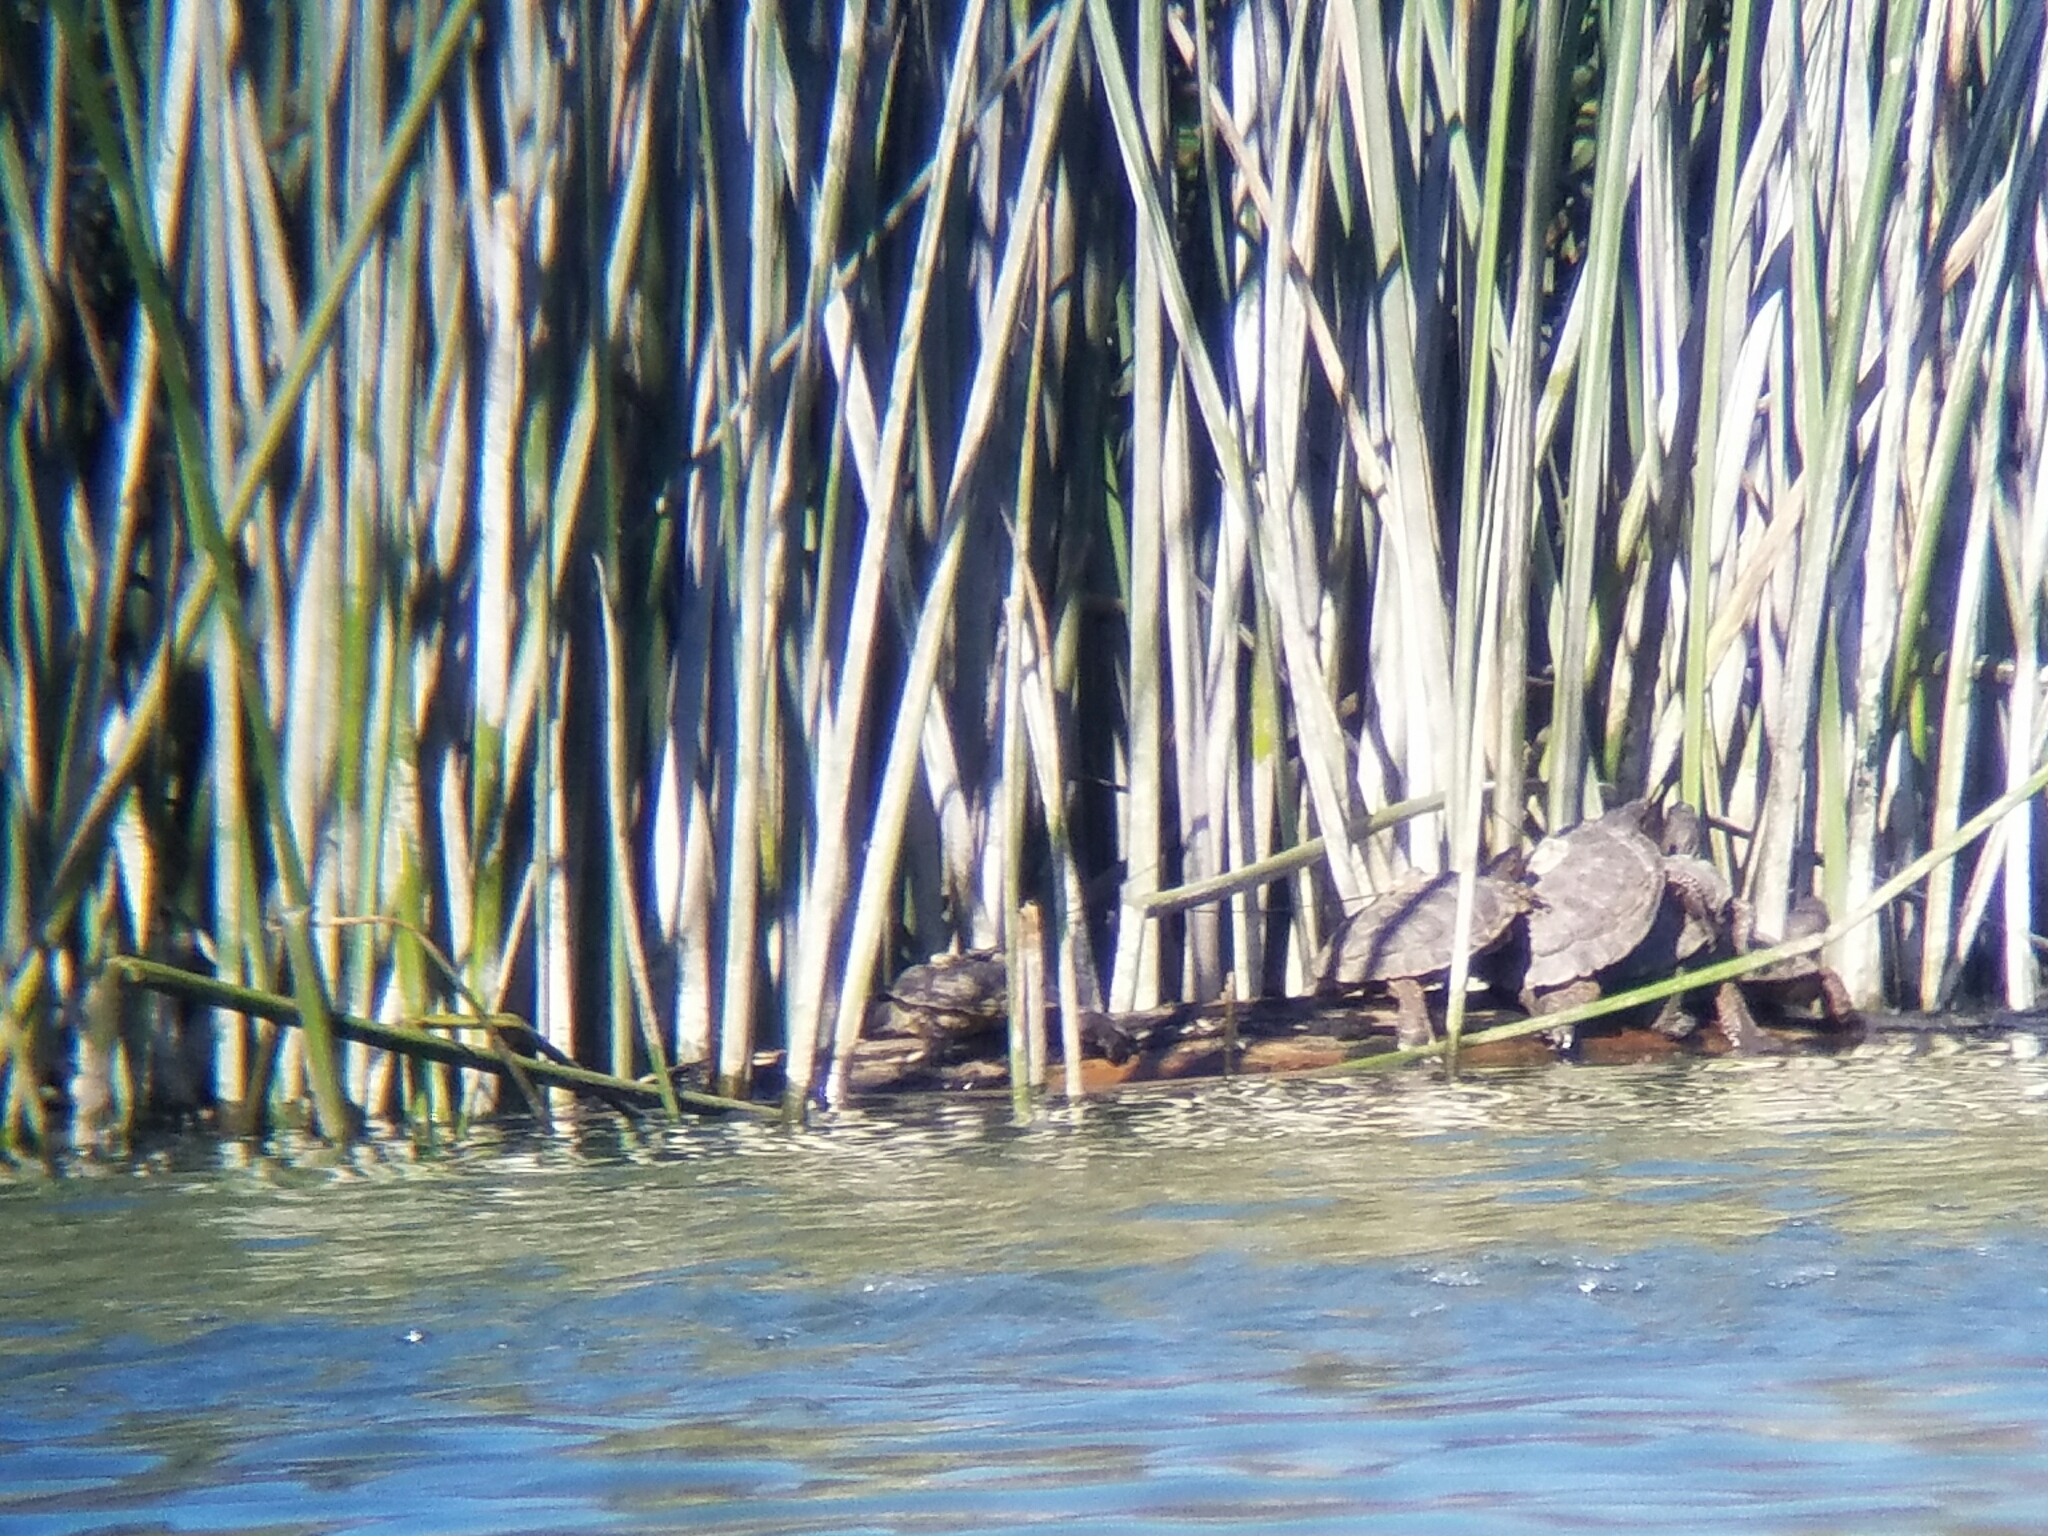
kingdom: Animalia
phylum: Chordata
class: Testudines
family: Emydidae
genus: Actinemys
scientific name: Actinemys marmorata
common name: Western pond turtle
